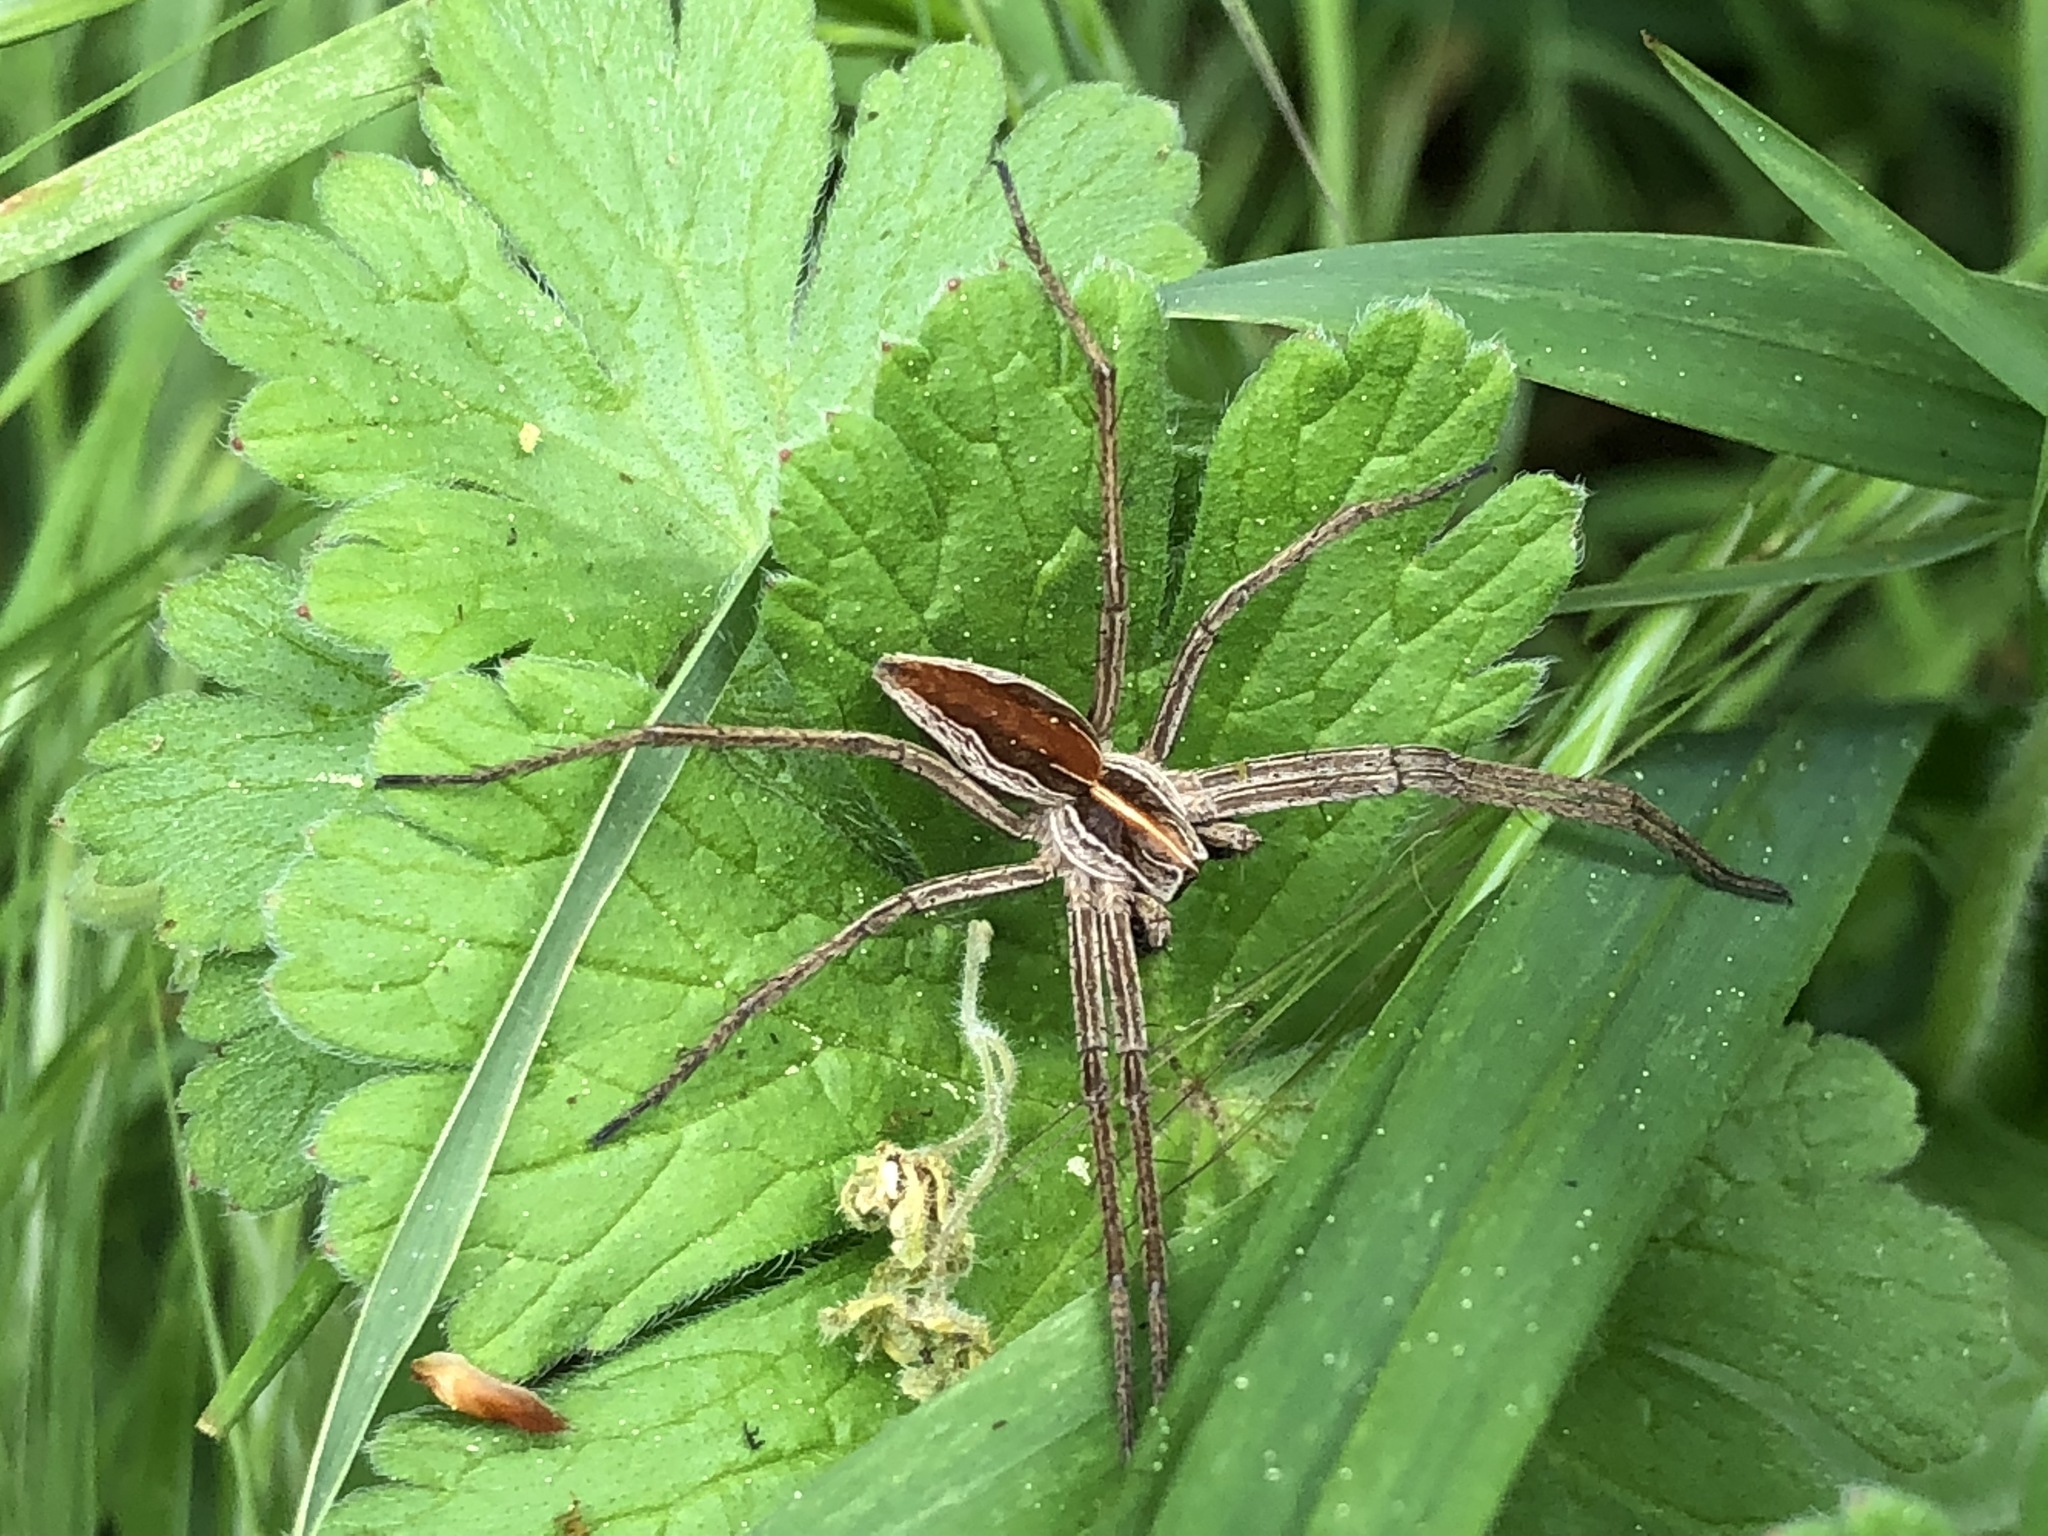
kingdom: Animalia
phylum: Arthropoda
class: Arachnida
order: Araneae
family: Pisauridae
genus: Pisaura
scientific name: Pisaura mirabilis
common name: Tent spider
